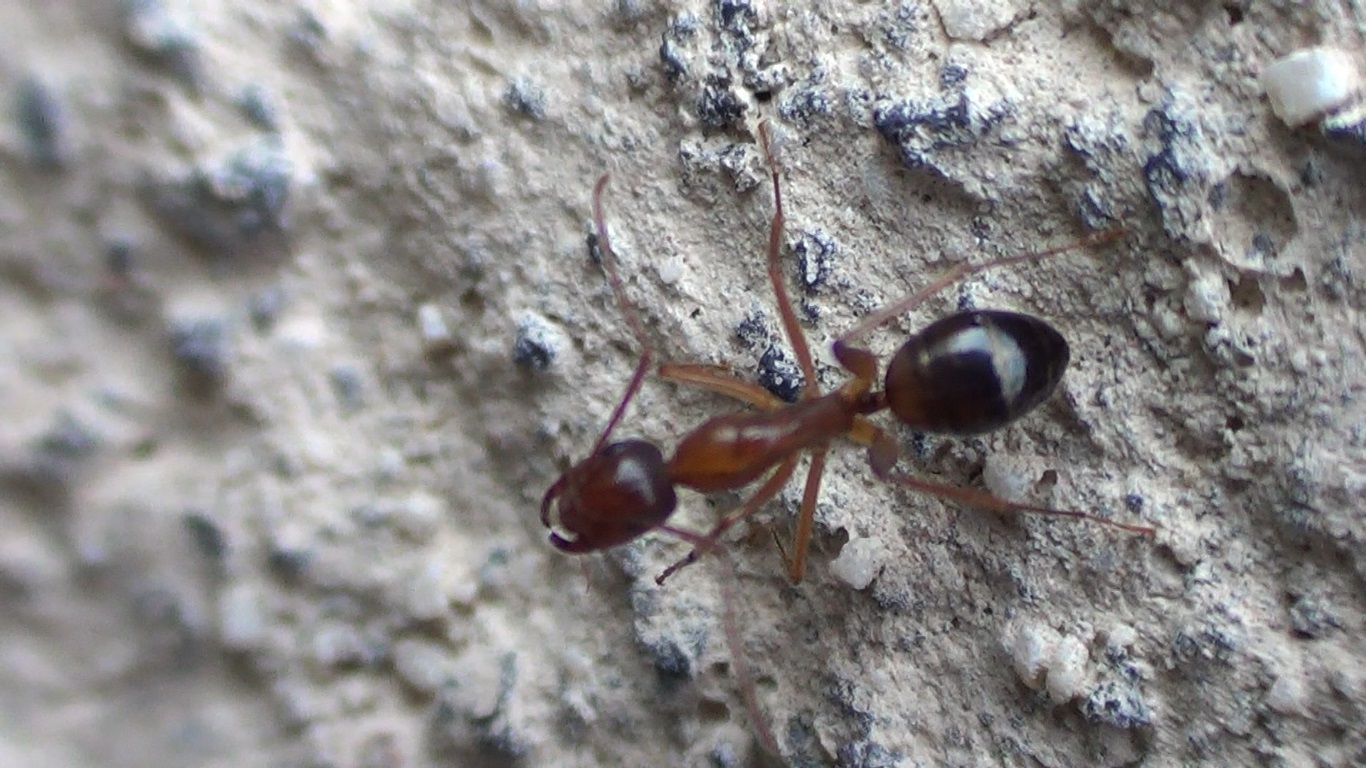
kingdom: Animalia
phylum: Arthropoda
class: Insecta
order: Hymenoptera
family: Formicidae
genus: Camponotus
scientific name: Camponotus nylanderi
